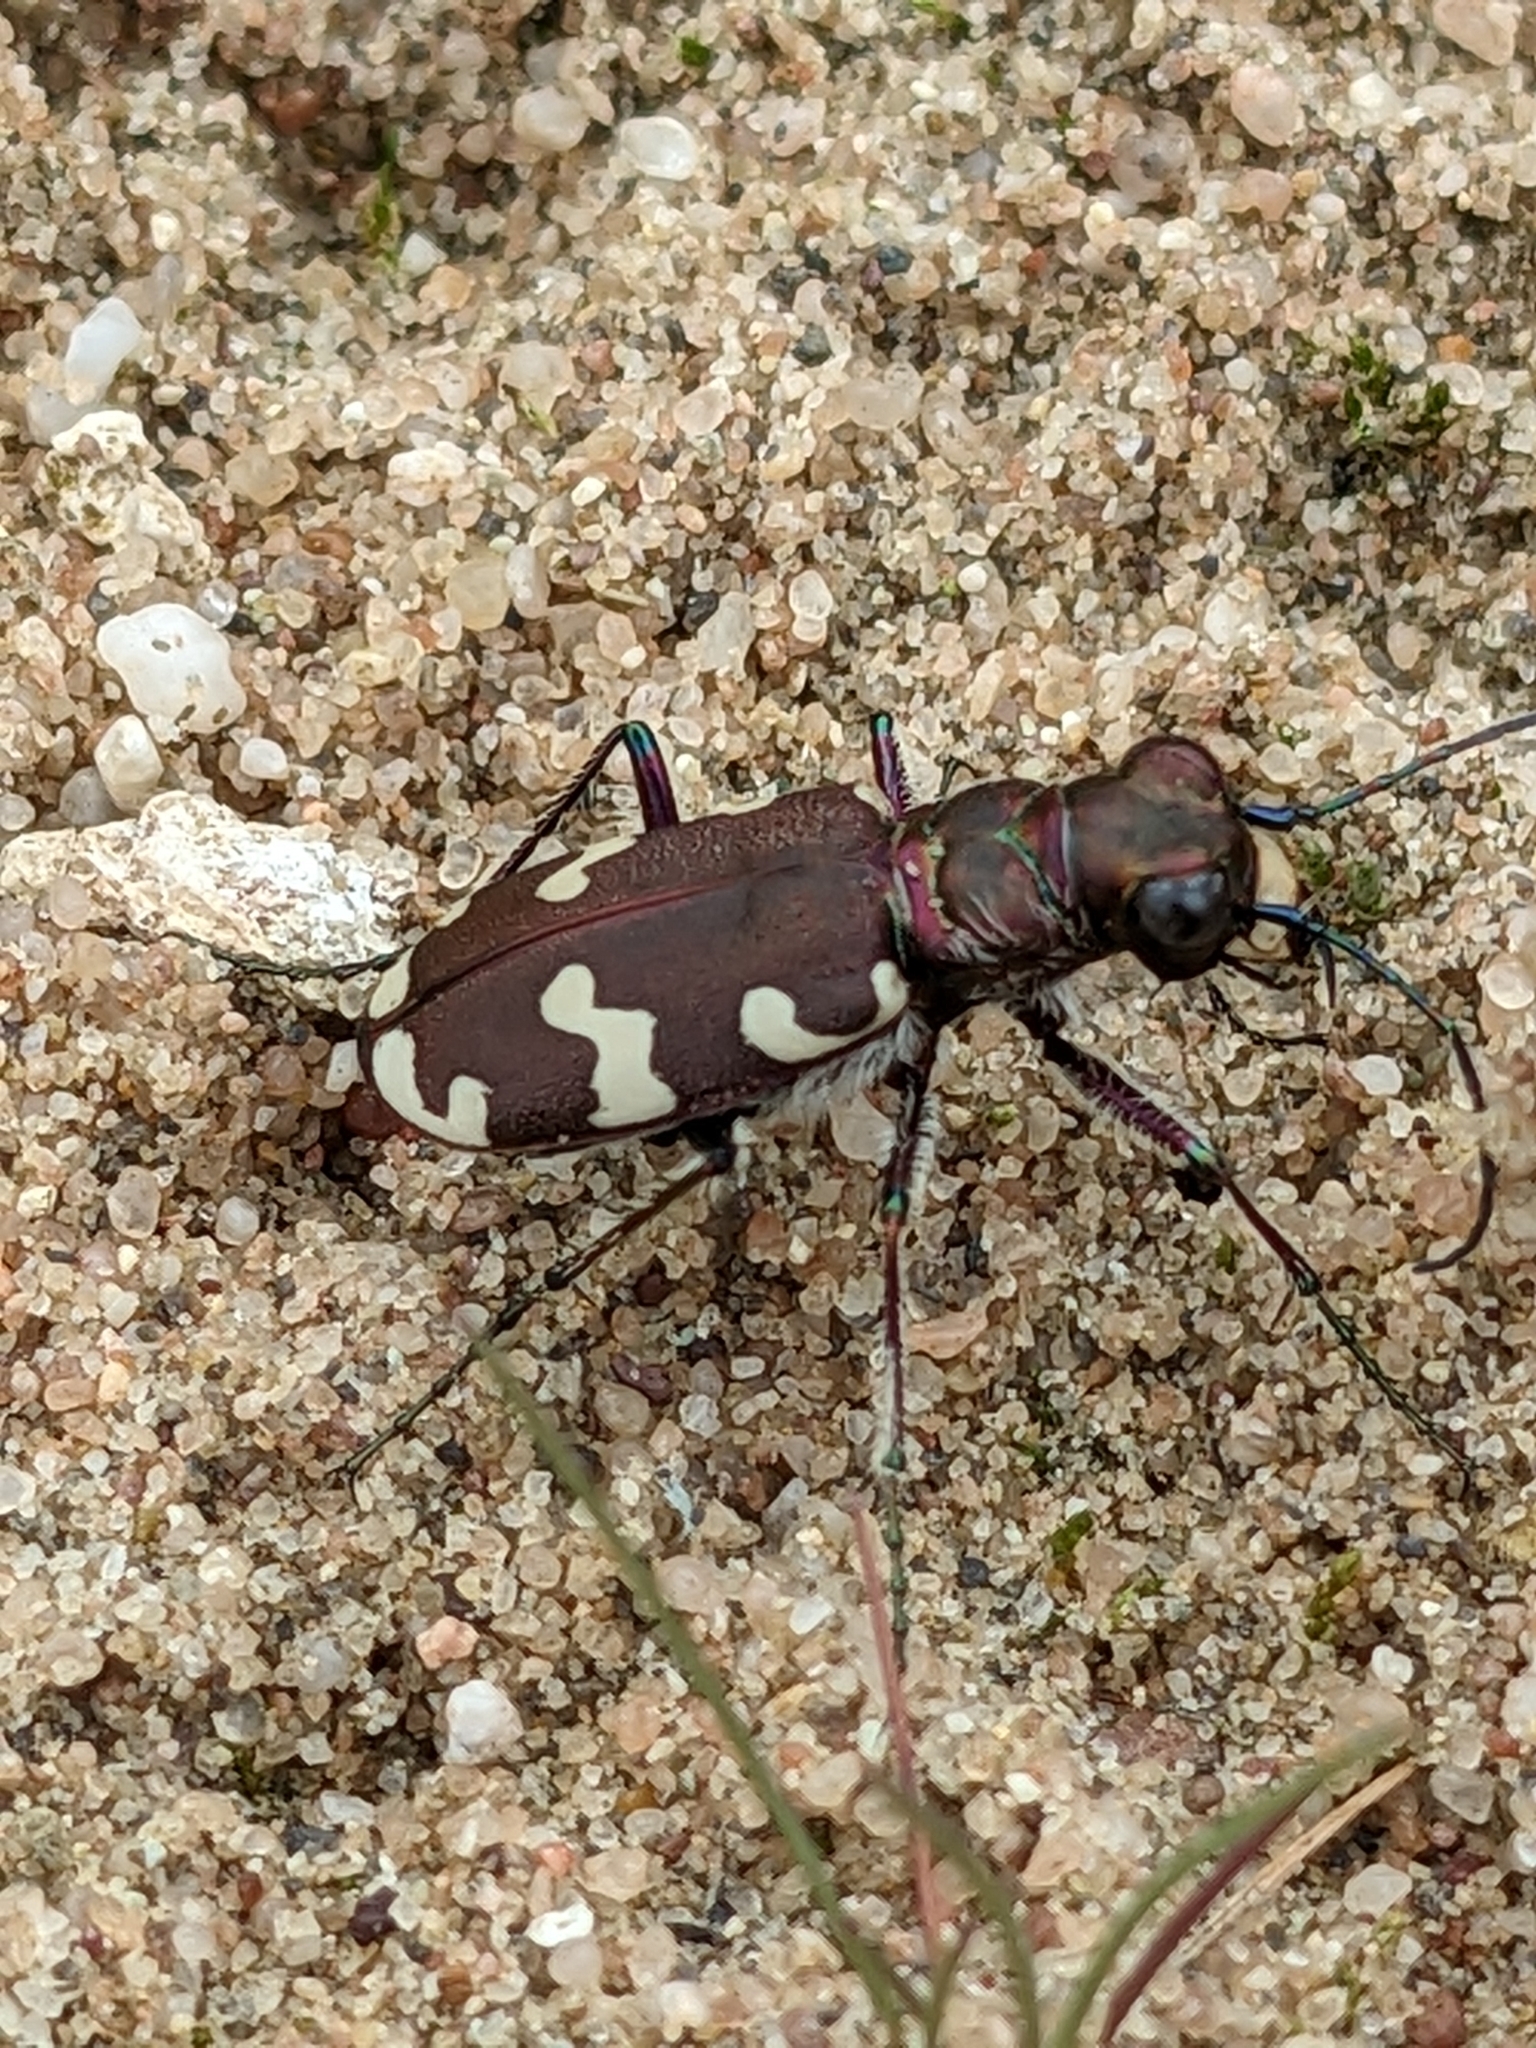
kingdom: Animalia
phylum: Arthropoda
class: Insecta
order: Coleoptera
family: Carabidae
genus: Cicindela
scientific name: Cicindela hybrida
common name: Northern dune tiger beetle
